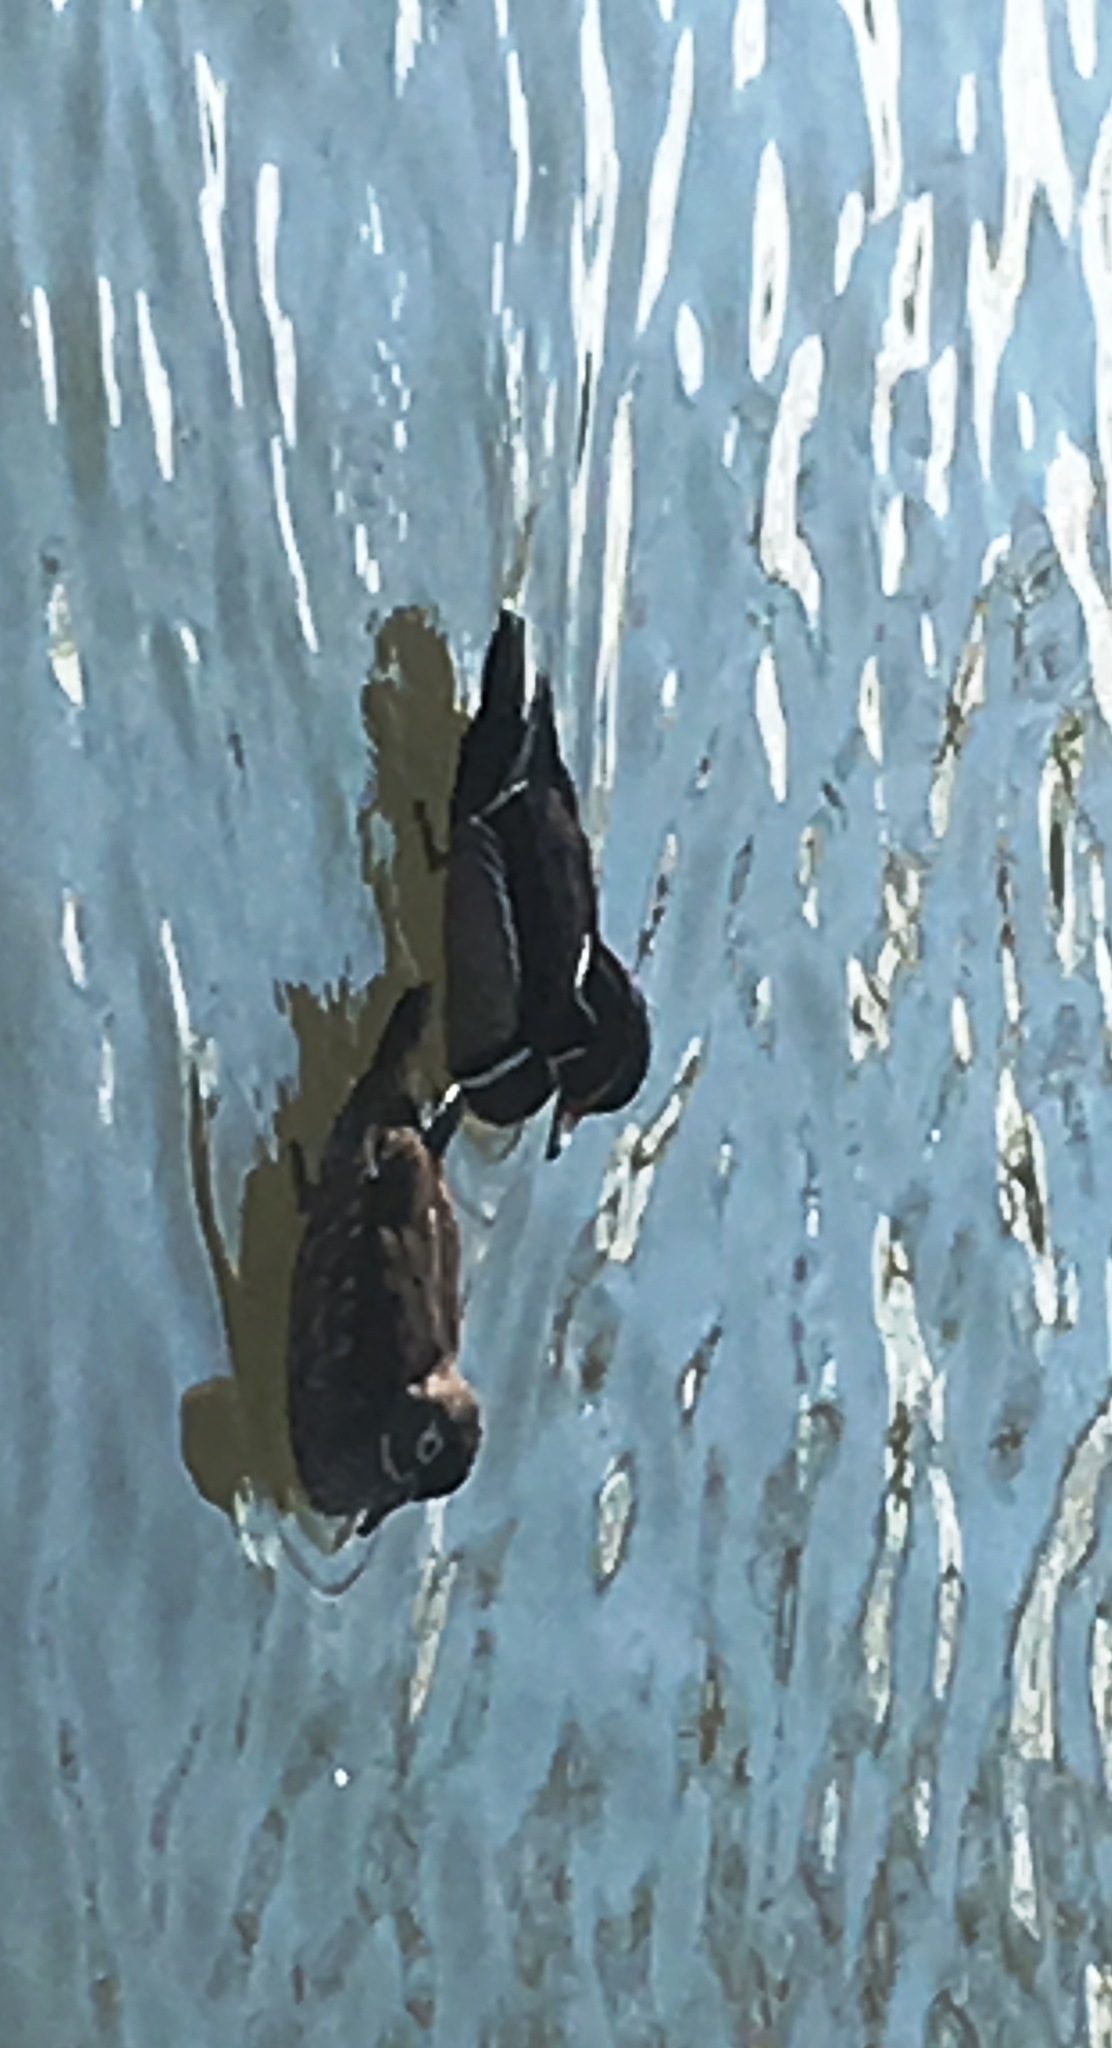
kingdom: Animalia
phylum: Chordata
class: Aves
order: Anseriformes
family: Anatidae
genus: Aix
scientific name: Aix sponsa
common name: Wood duck
